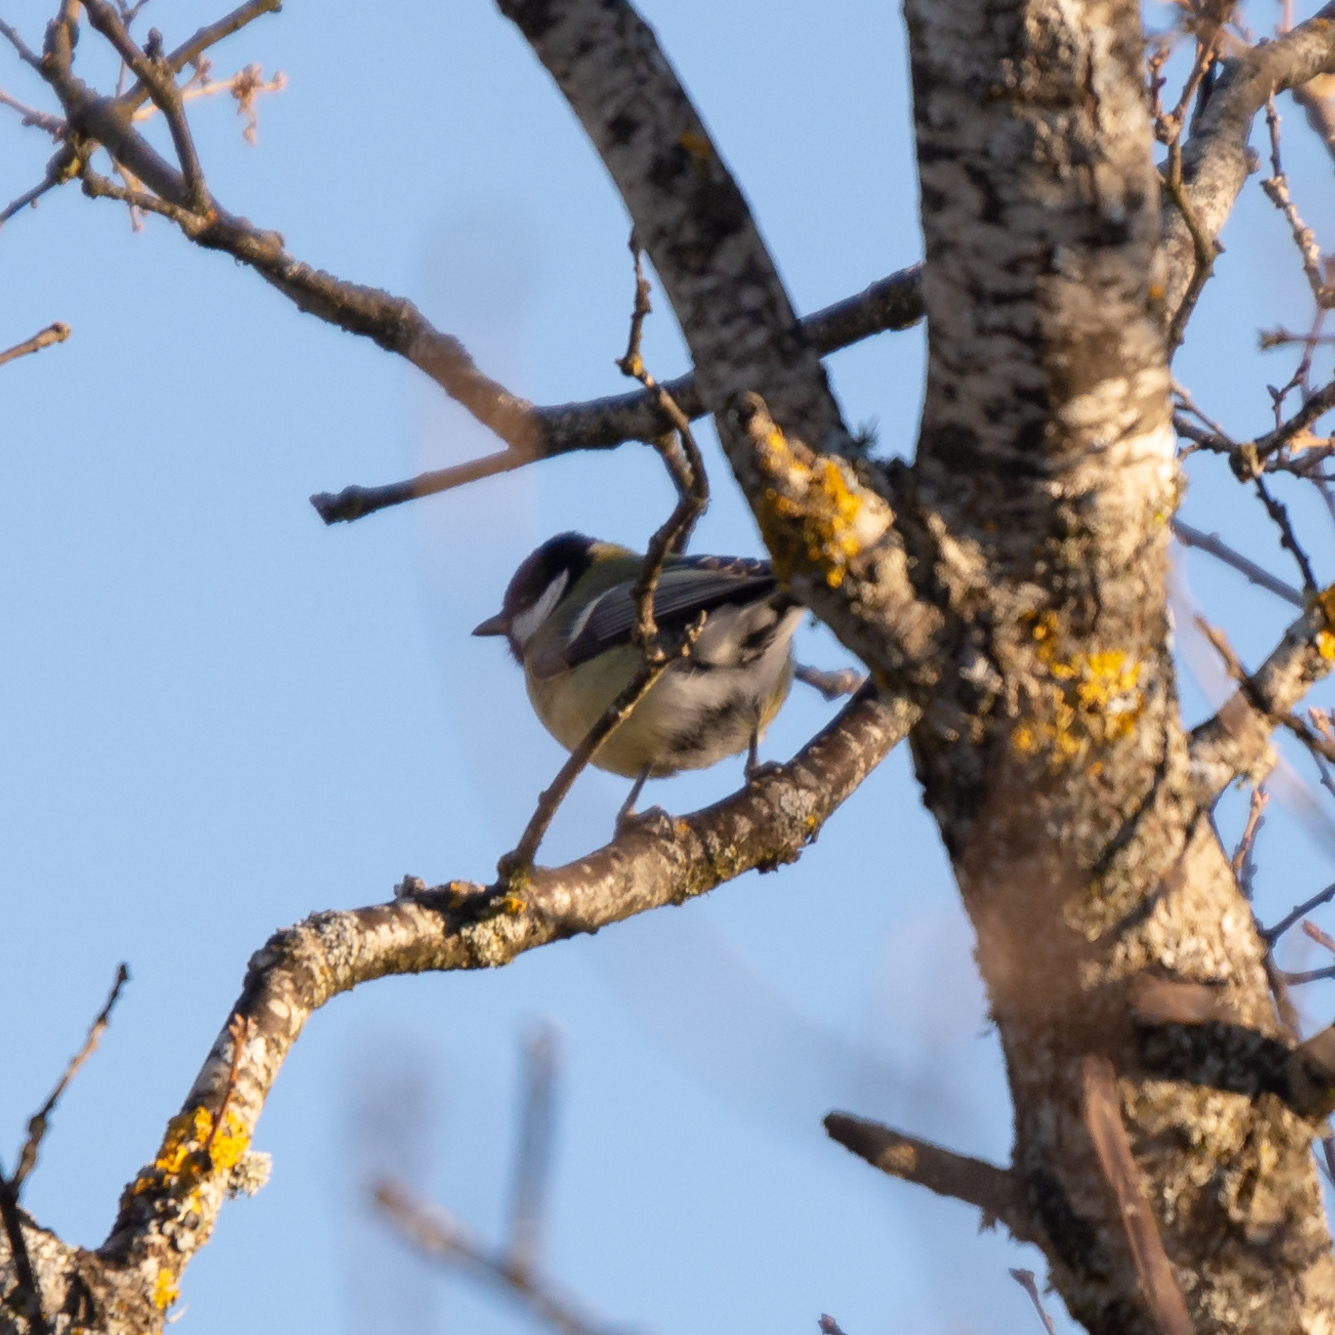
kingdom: Animalia
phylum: Chordata
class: Aves
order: Passeriformes
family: Paridae
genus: Parus
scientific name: Parus major
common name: Great tit
